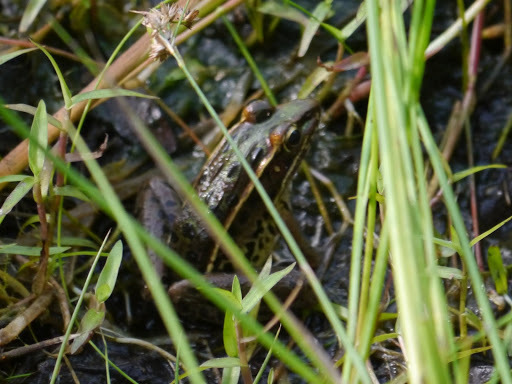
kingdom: Animalia
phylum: Chordata
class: Amphibia
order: Anura
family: Ranidae
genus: Lithobates
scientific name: Lithobates sphenocephalus
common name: Southern leopard frog
